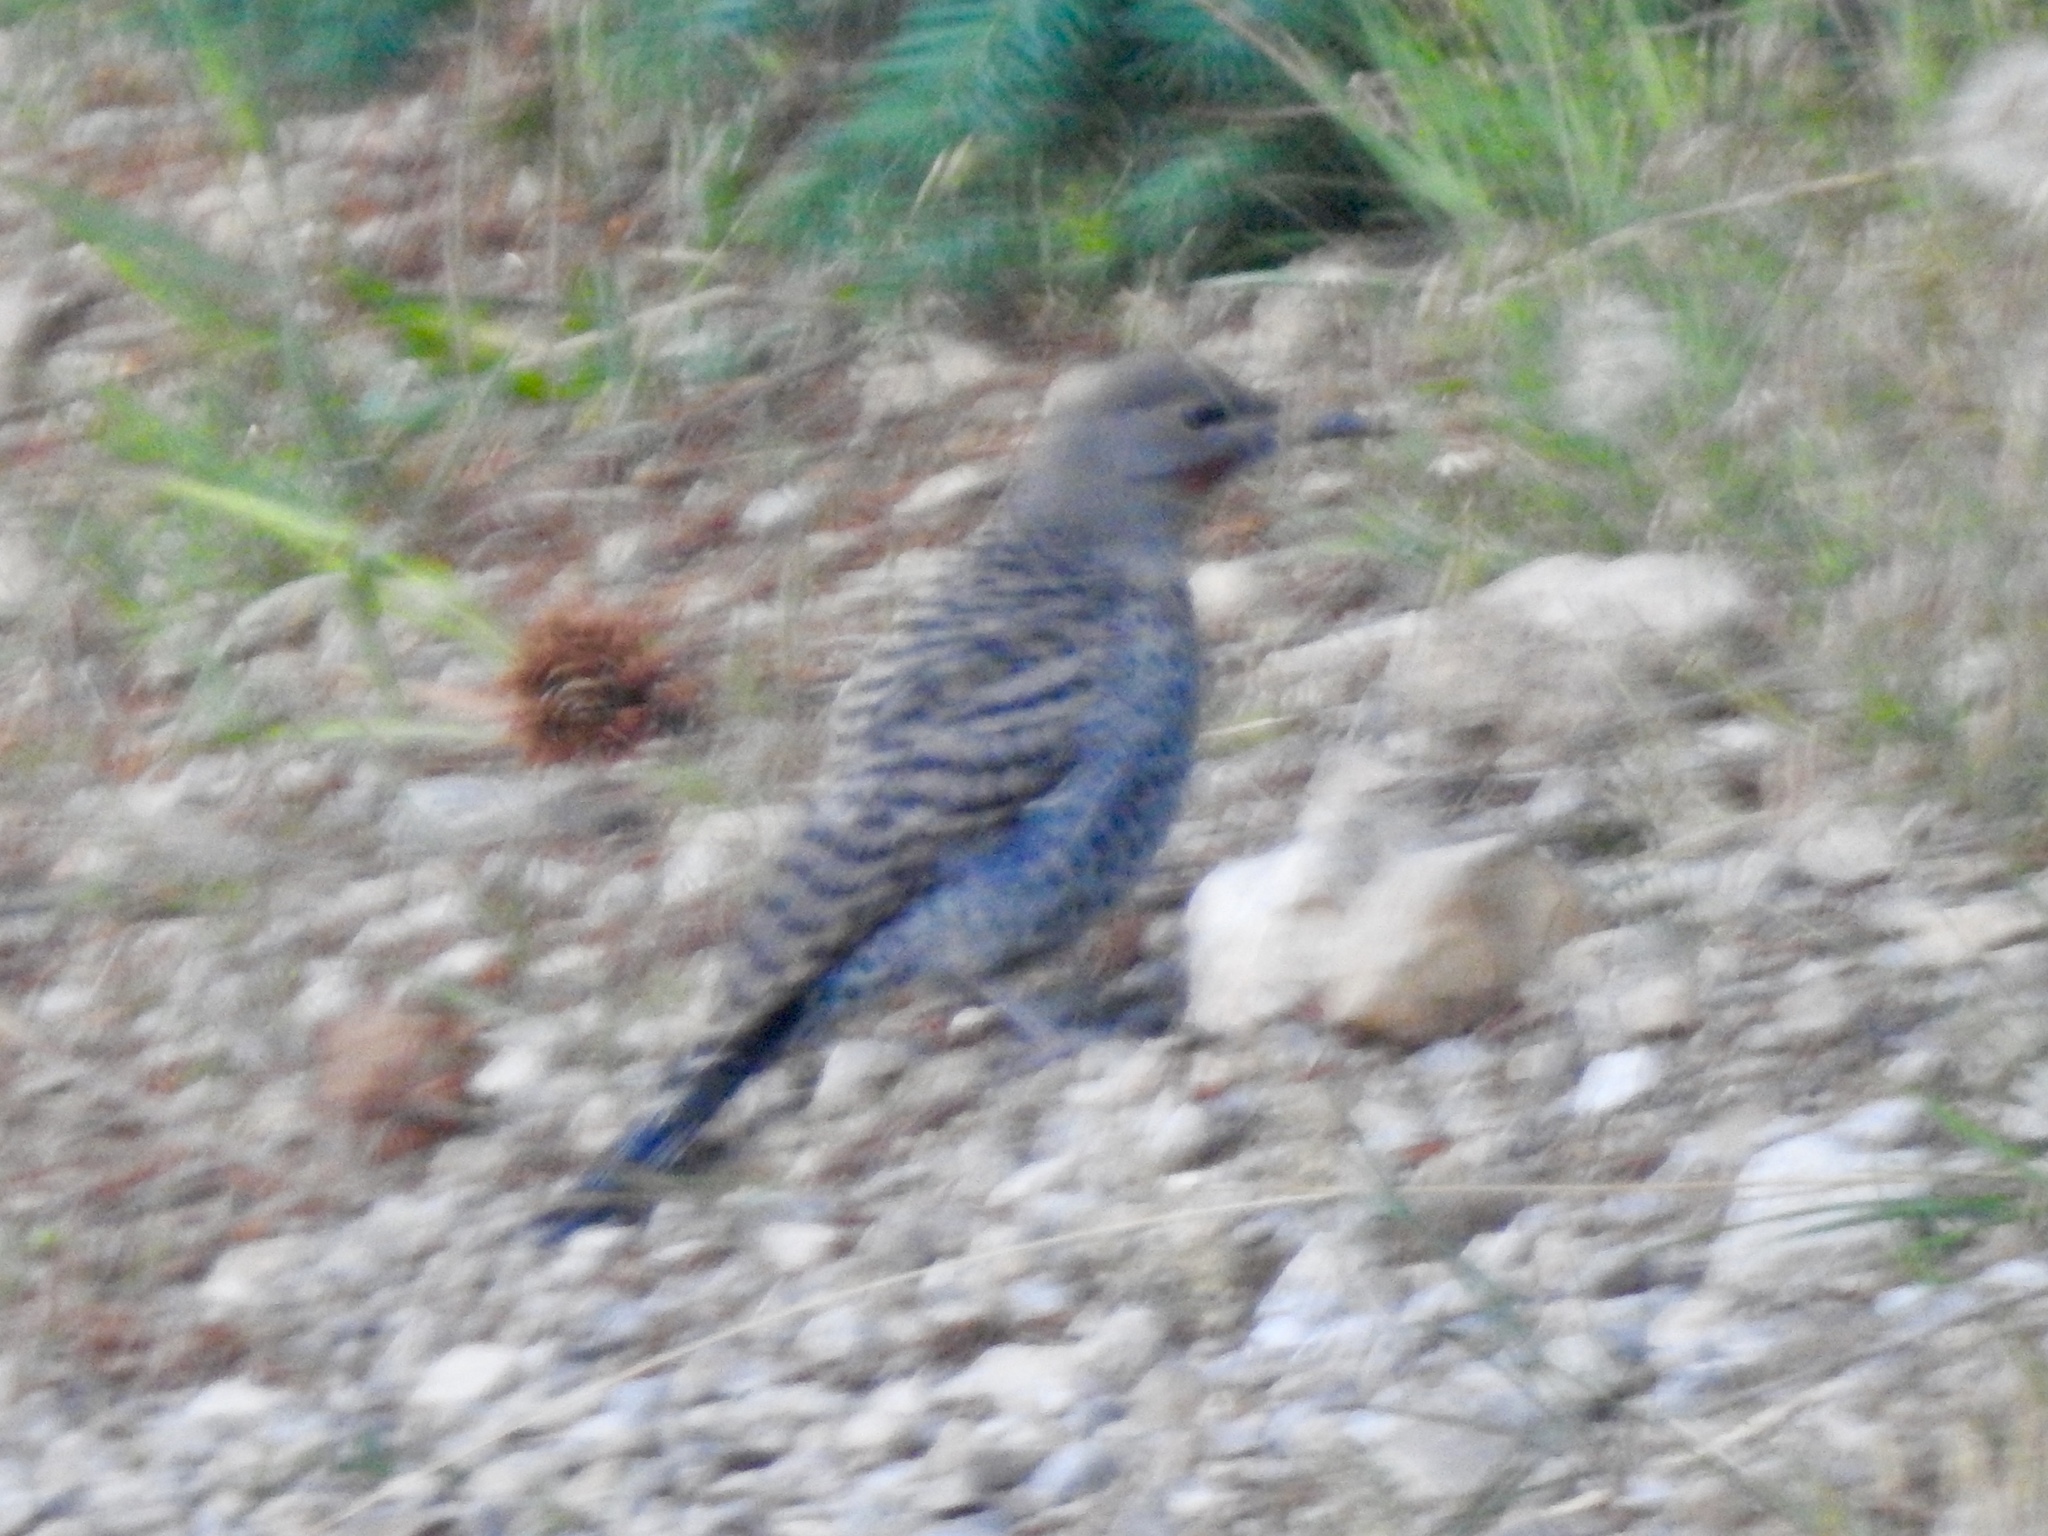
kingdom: Animalia
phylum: Chordata
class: Aves
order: Piciformes
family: Picidae
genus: Colaptes
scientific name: Colaptes auratus
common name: Northern flicker
